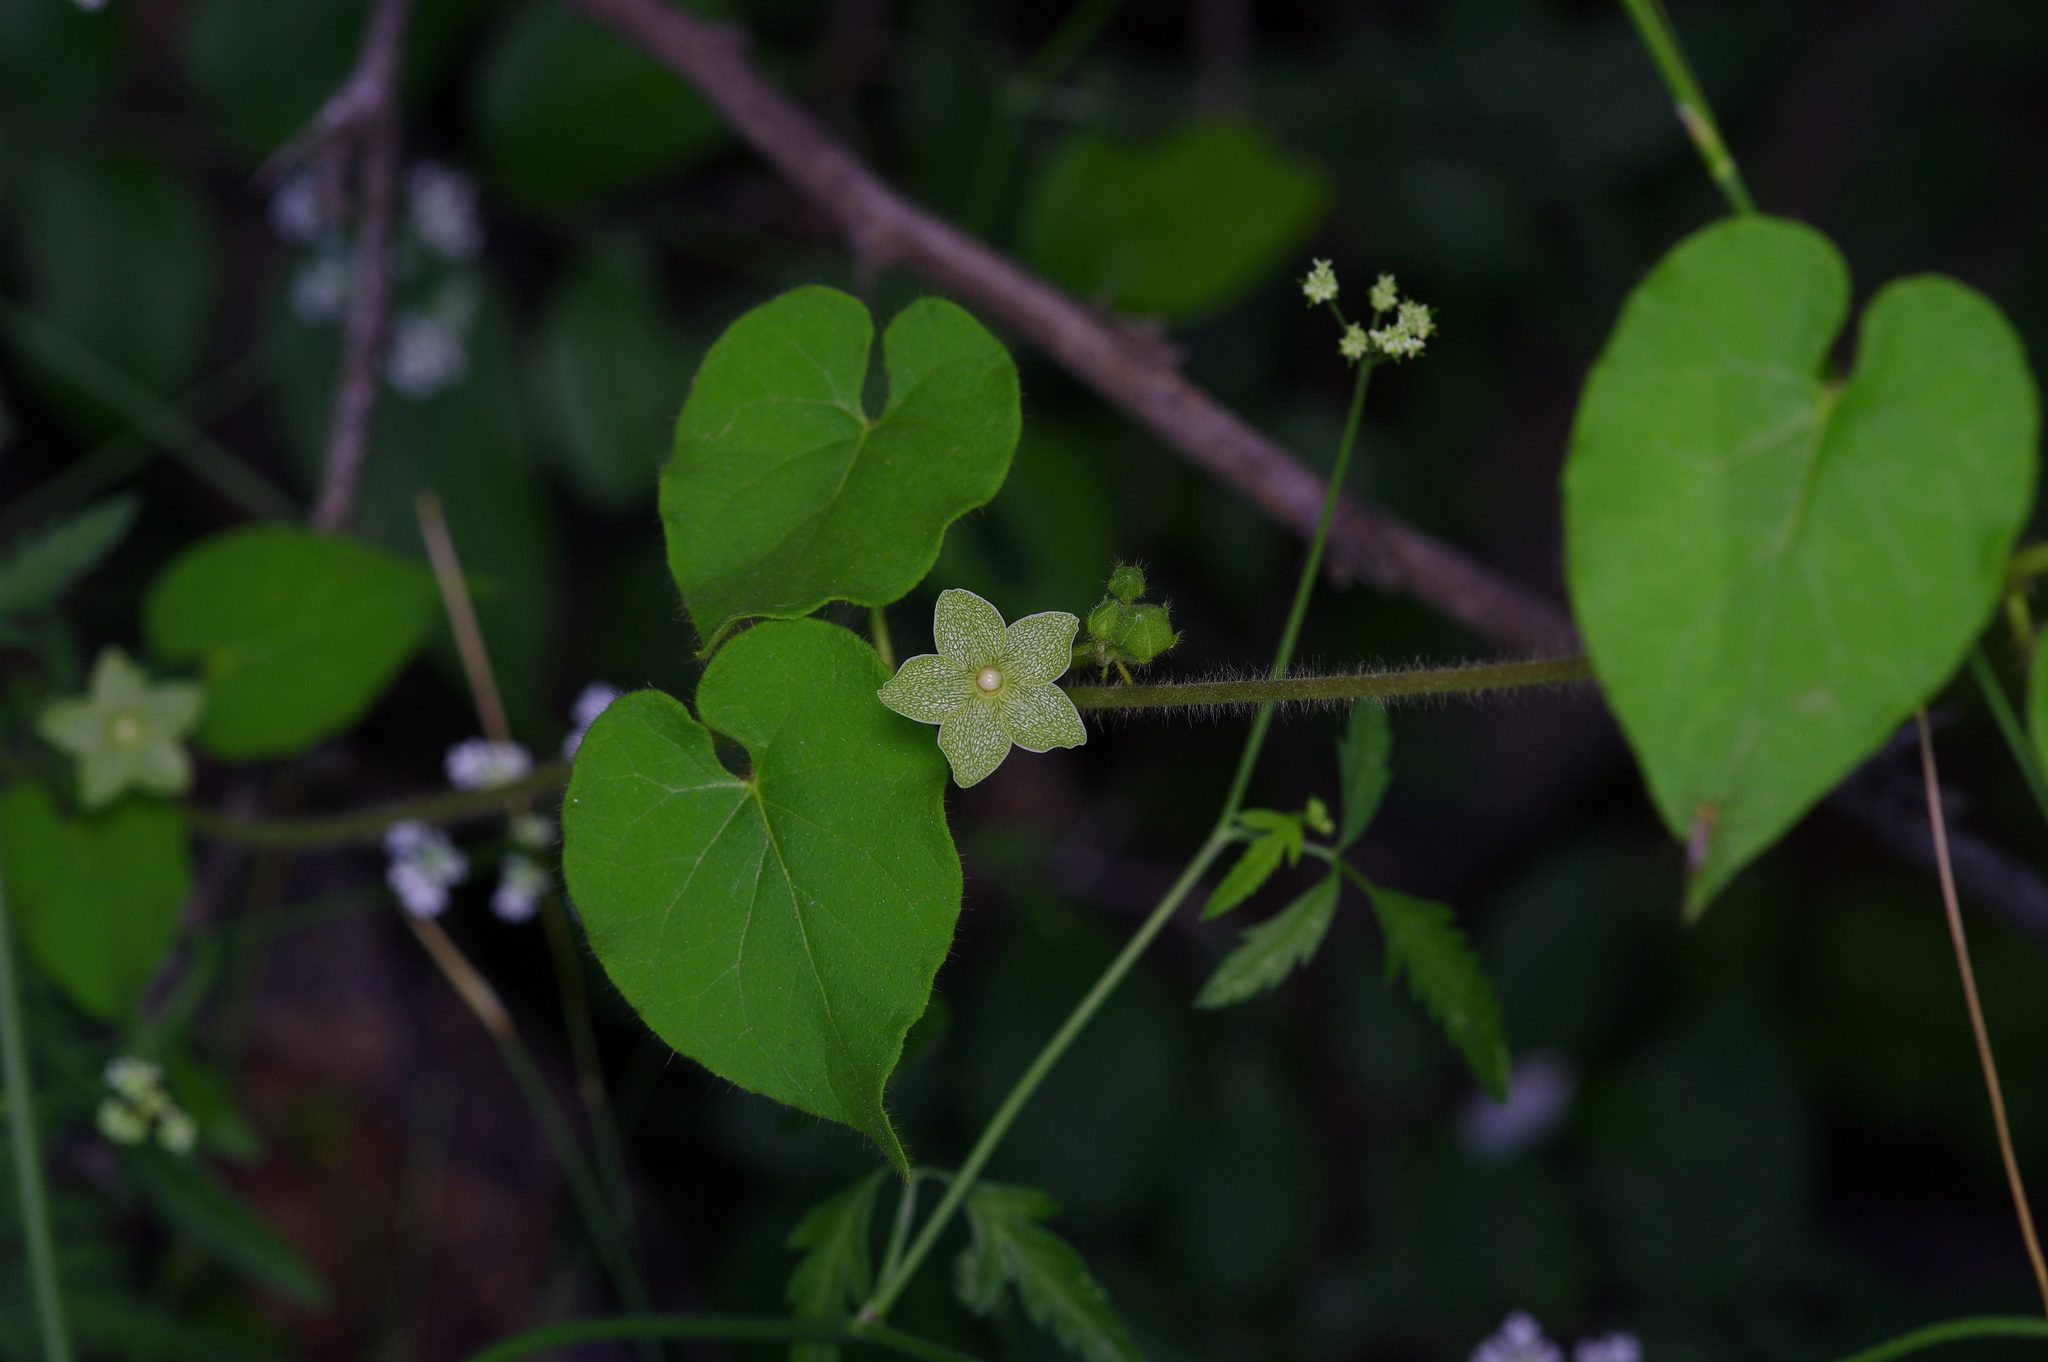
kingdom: Plantae
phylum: Tracheophyta
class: Magnoliopsida
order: Gentianales
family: Apocynaceae
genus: Dictyanthus
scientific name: Dictyanthus reticulatus
